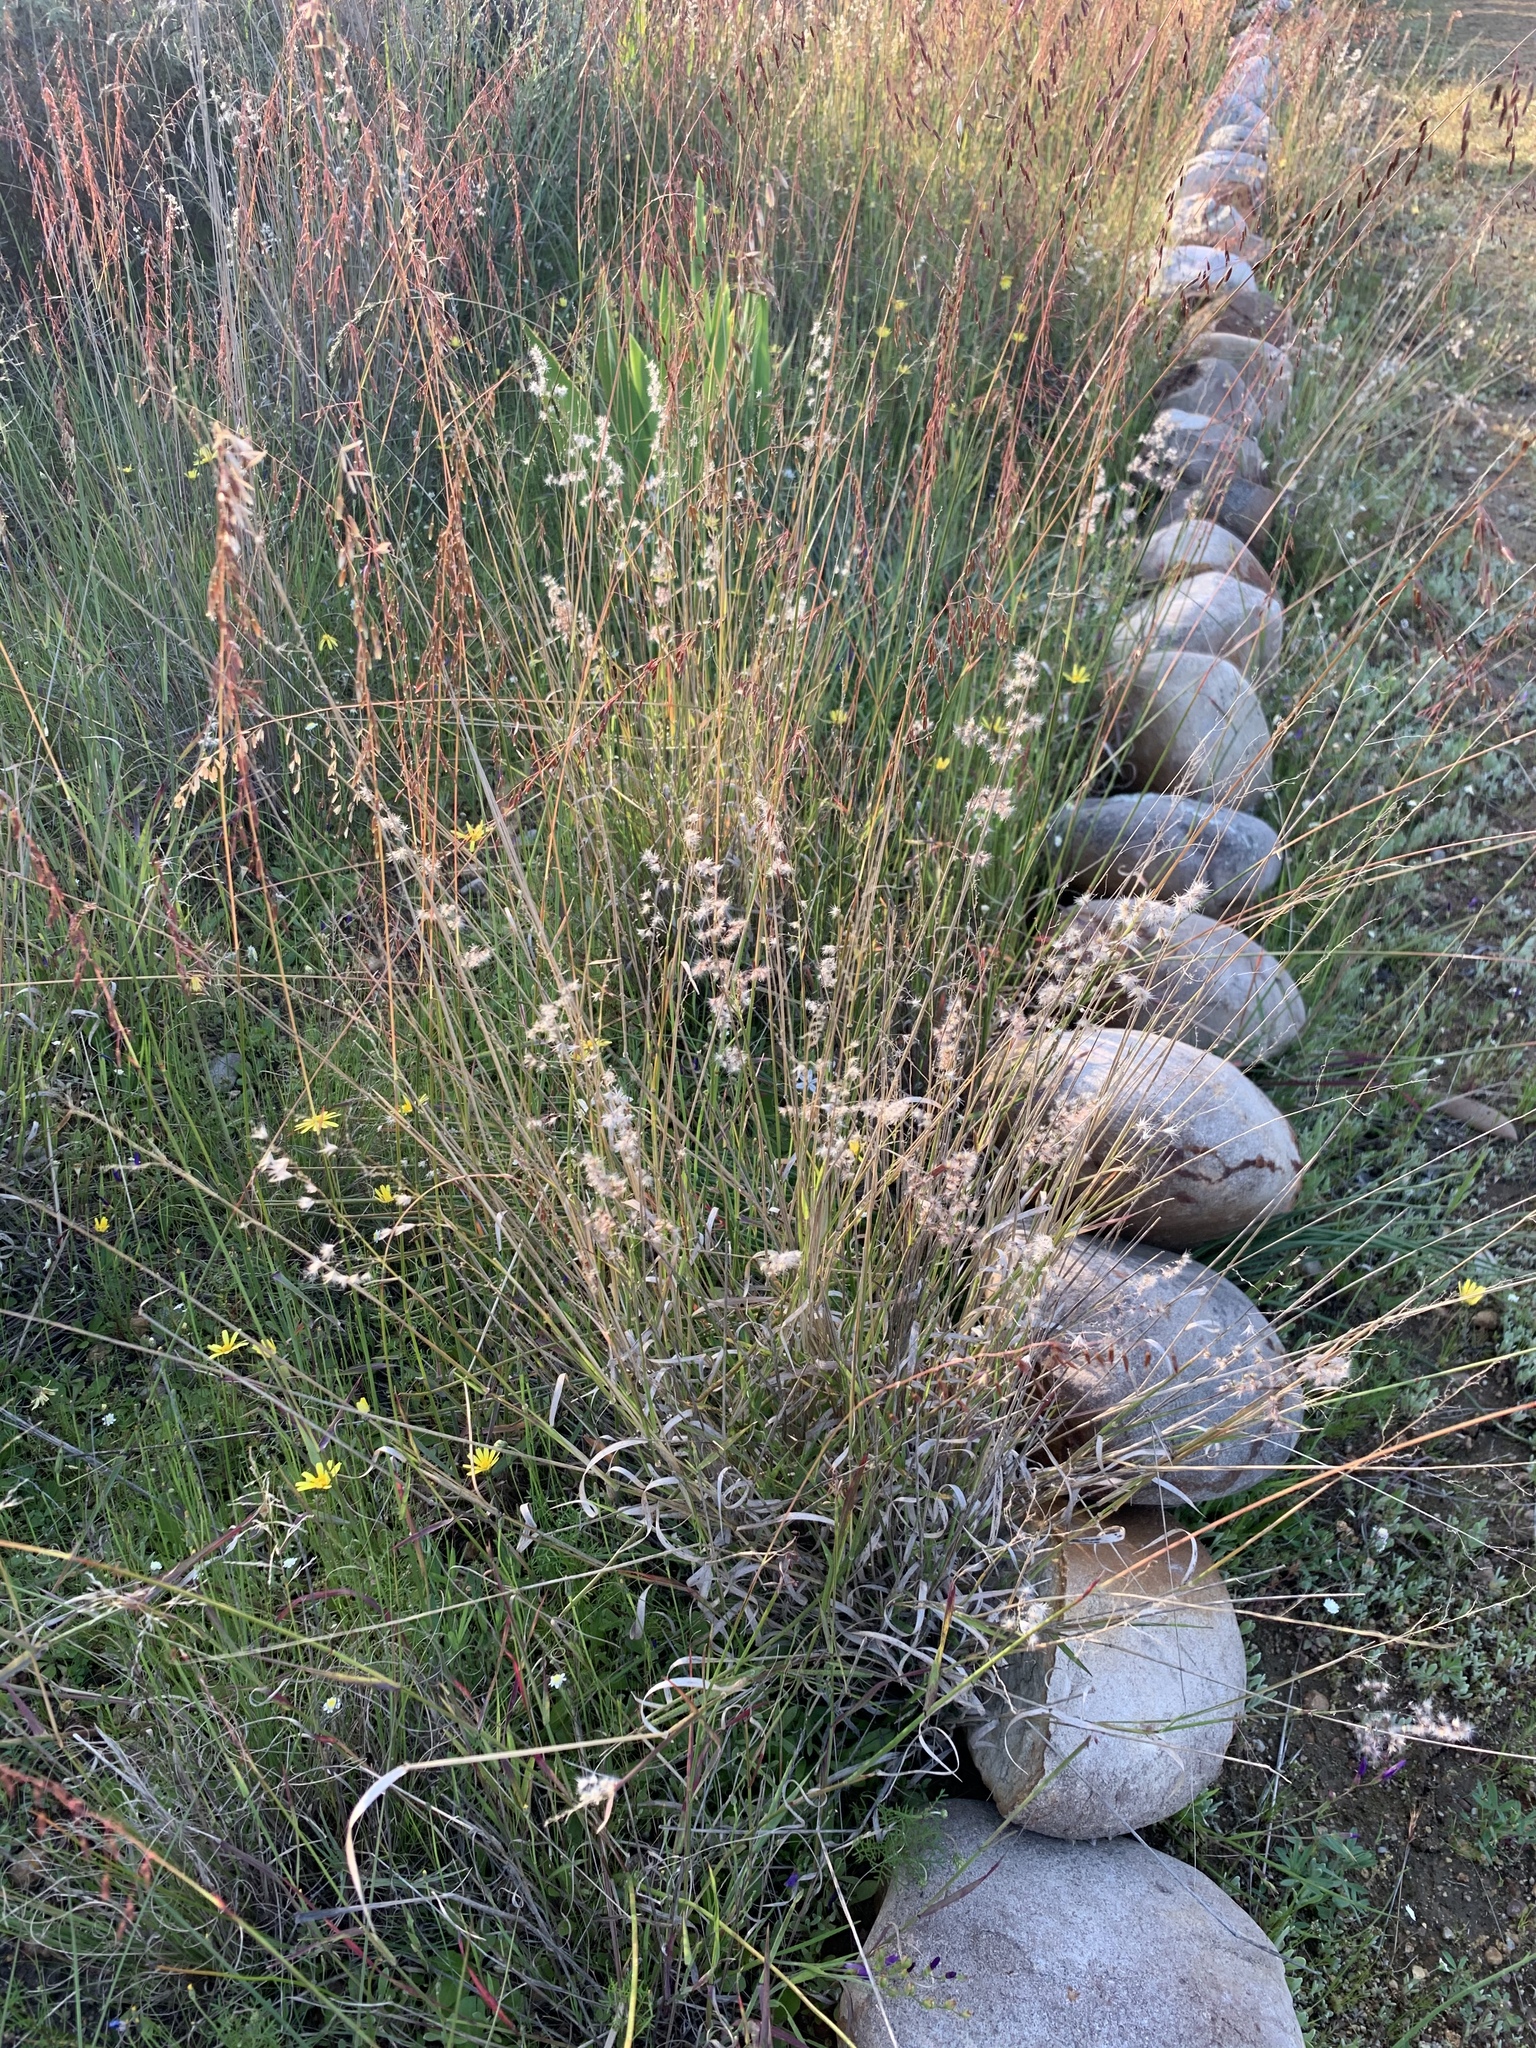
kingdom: Plantae
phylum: Tracheophyta
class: Liliopsida
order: Poales
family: Poaceae
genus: Melinis
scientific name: Melinis repens
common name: Rose natal grass
